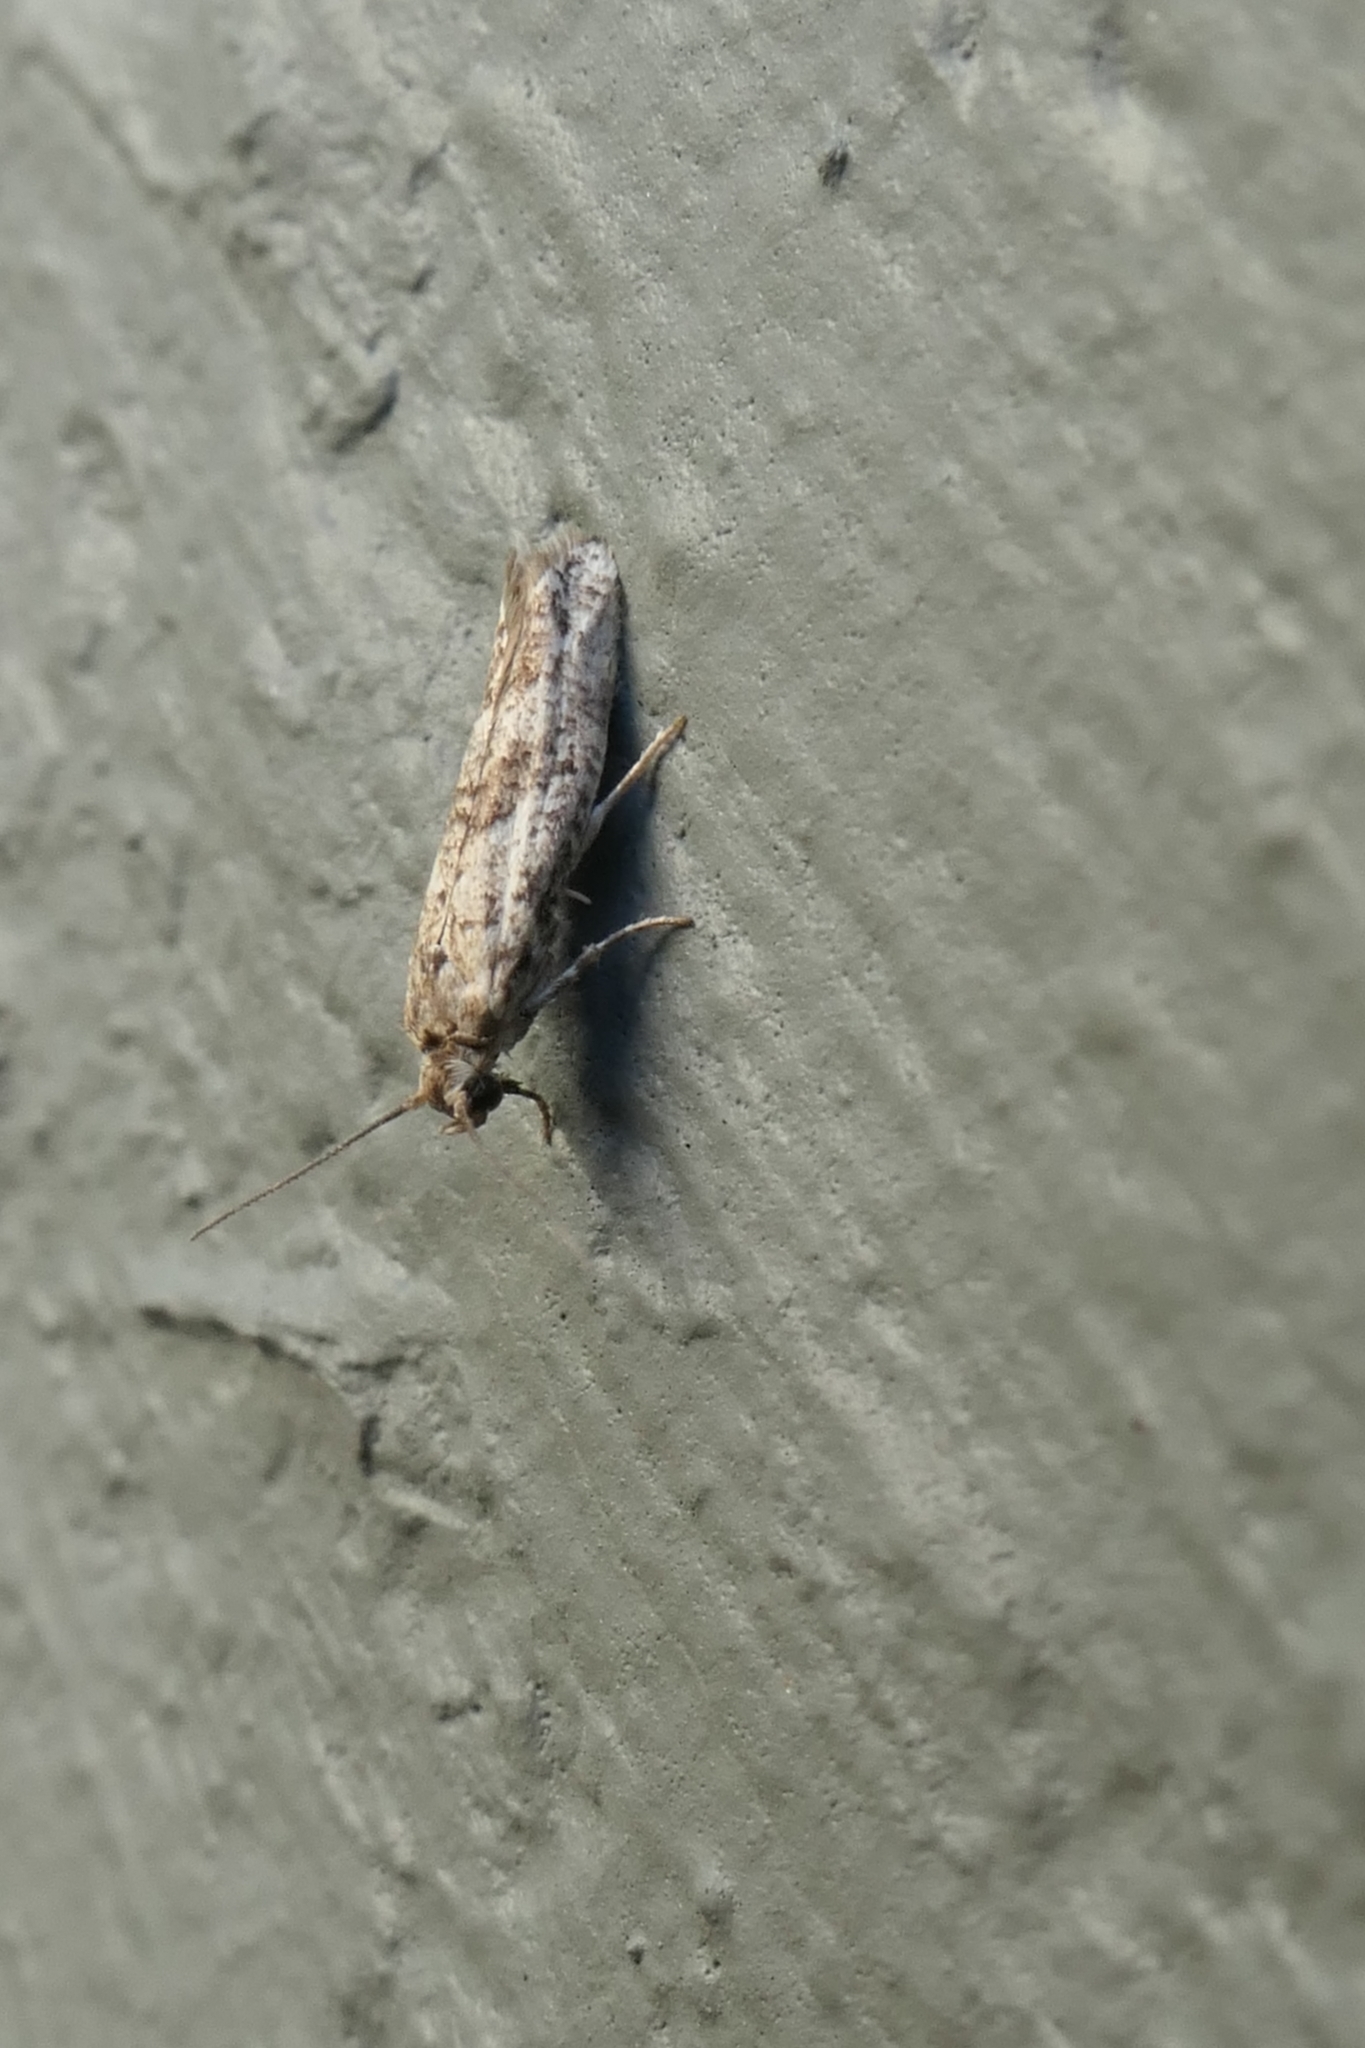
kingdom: Animalia
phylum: Arthropoda
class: Insecta
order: Lepidoptera
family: Praydidae
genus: Prays
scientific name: Prays nephelomima
